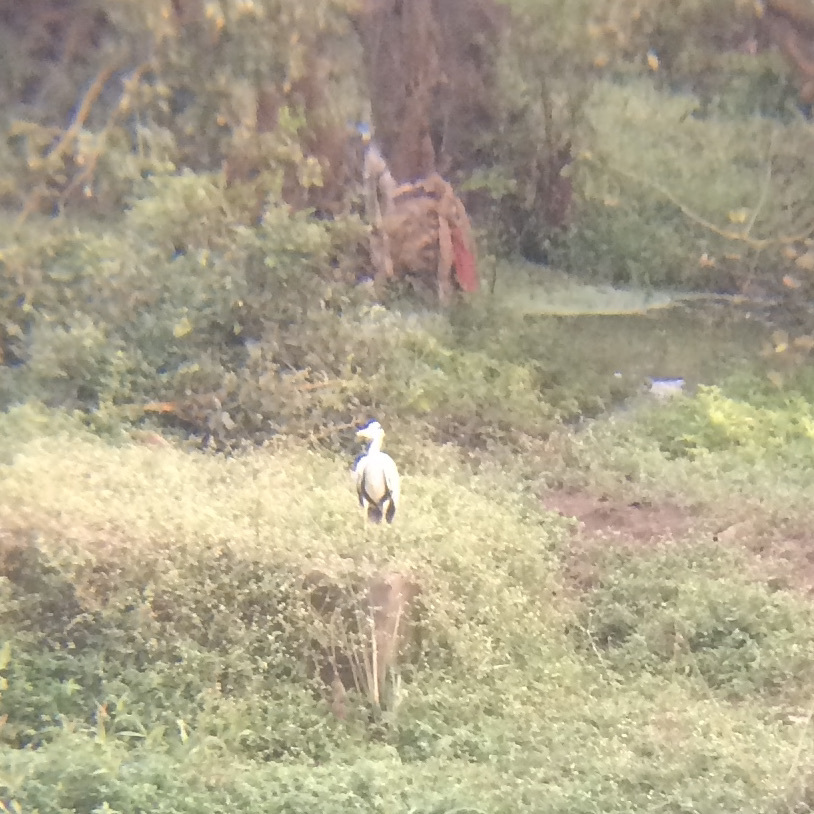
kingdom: Animalia
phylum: Chordata
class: Aves
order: Pelecaniformes
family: Ardeidae
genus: Ardea
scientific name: Ardea cinerea
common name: Grey heron
